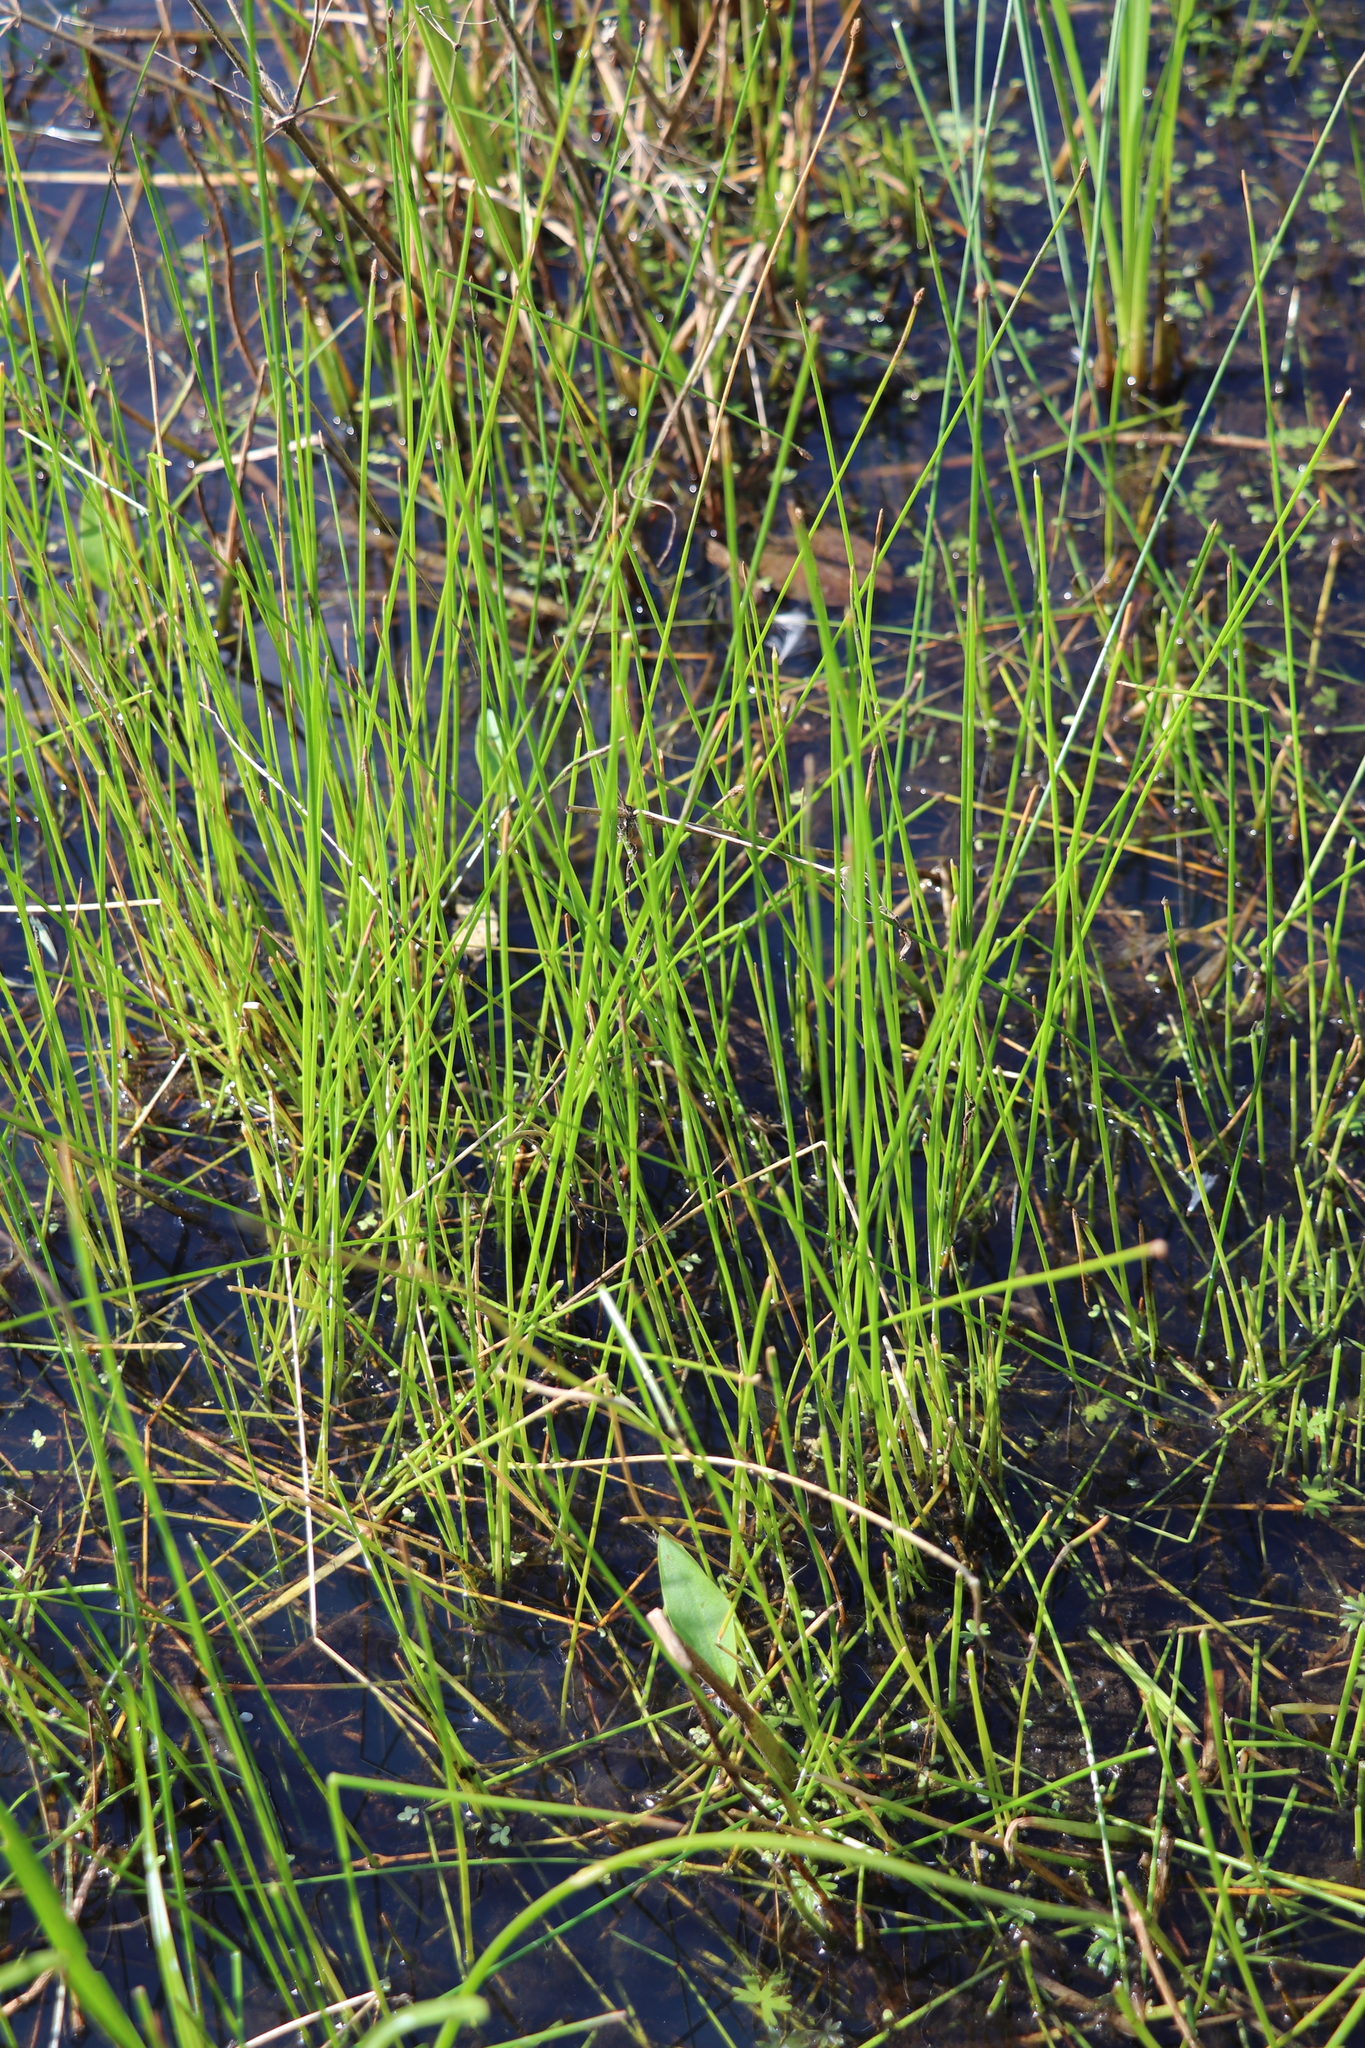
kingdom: Plantae
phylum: Tracheophyta
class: Liliopsida
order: Poales
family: Cyperaceae
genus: Eleocharis
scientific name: Eleocharis palustris
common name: Common spike-rush
